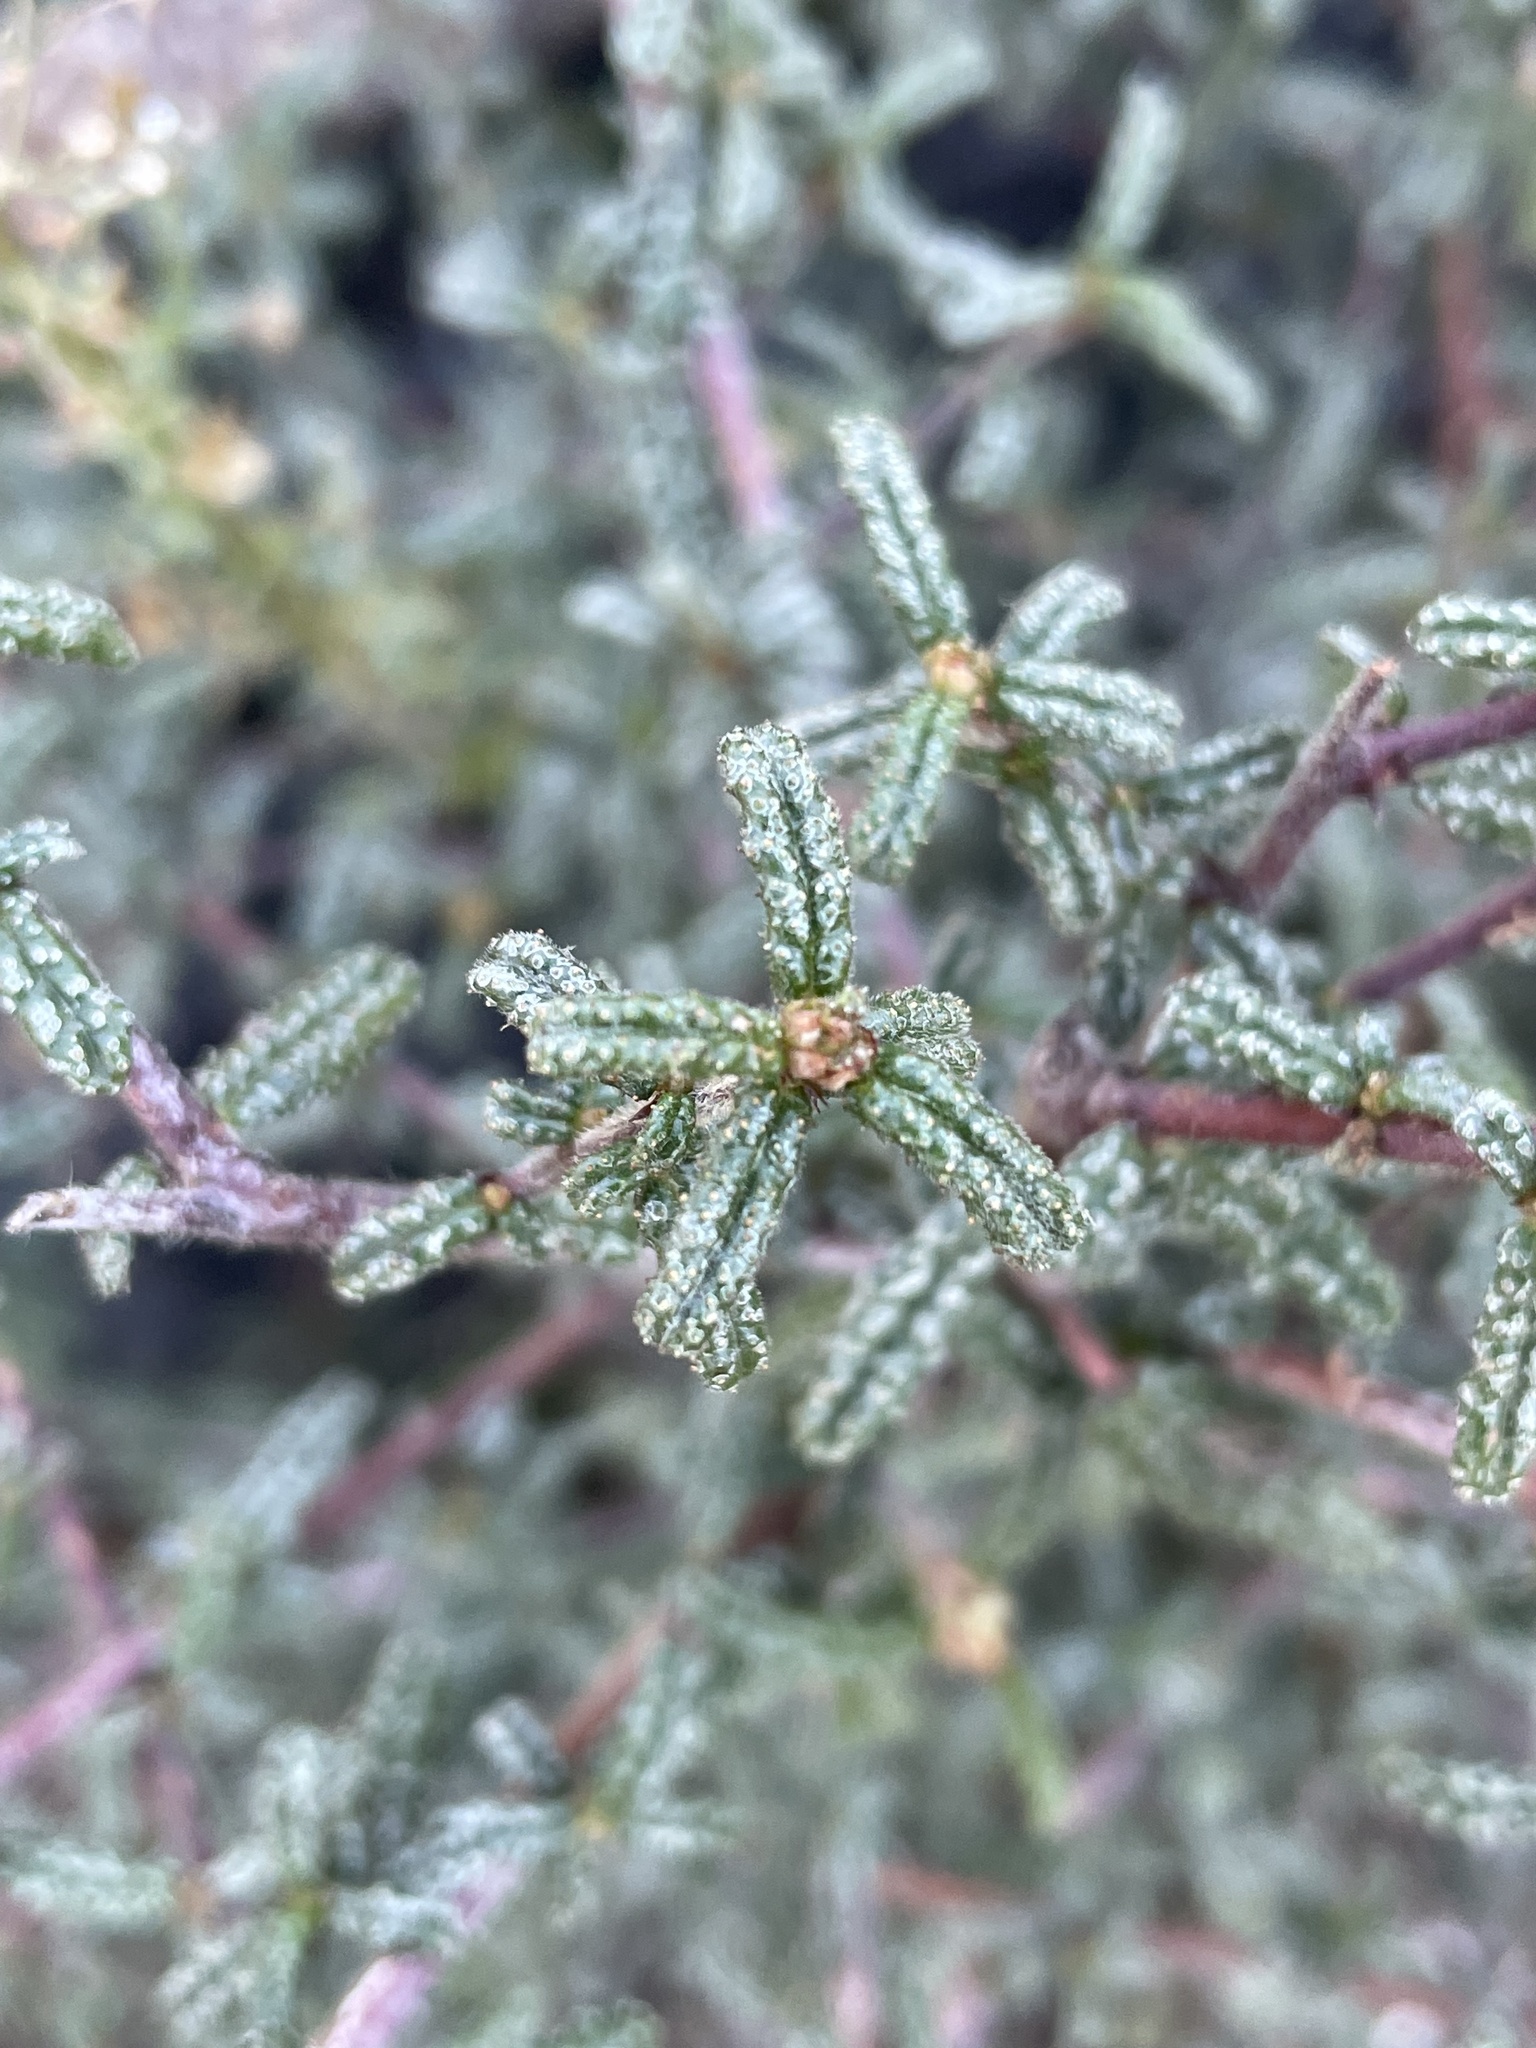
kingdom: Plantae
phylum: Tracheophyta
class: Magnoliopsida
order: Rosales
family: Rhamnaceae
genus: Ceanothus
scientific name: Ceanothus papillosus
